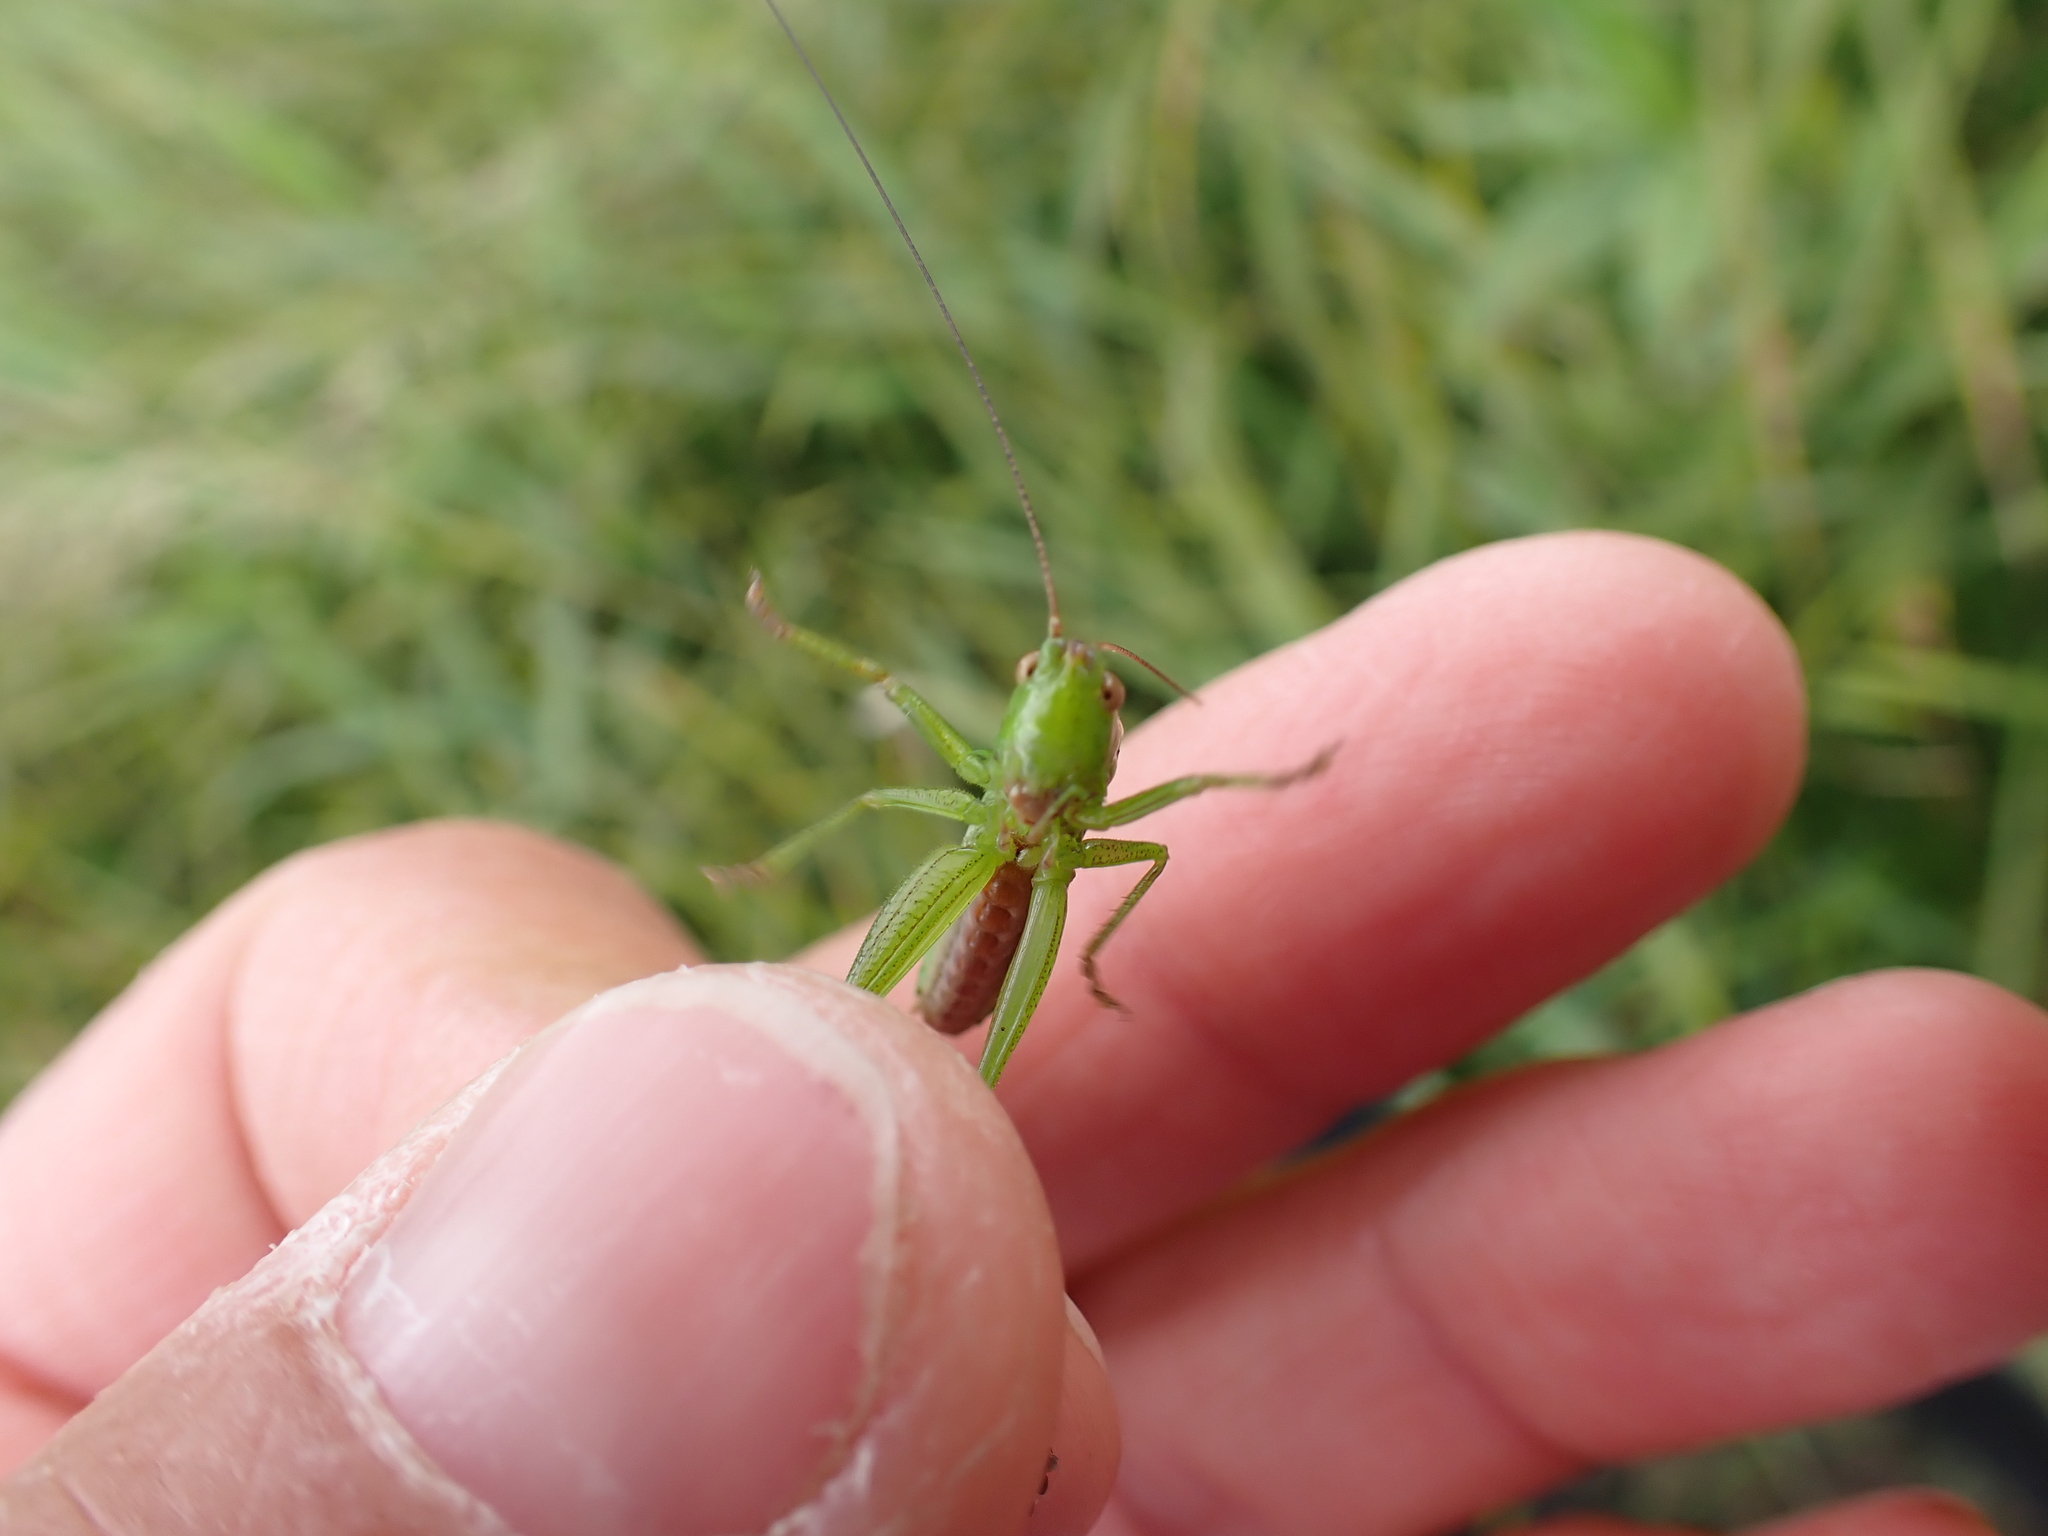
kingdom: Animalia
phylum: Arthropoda
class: Insecta
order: Orthoptera
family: Tettigoniidae
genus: Conocephalus
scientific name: Conocephalus fuscus
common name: Long-winged conehead
